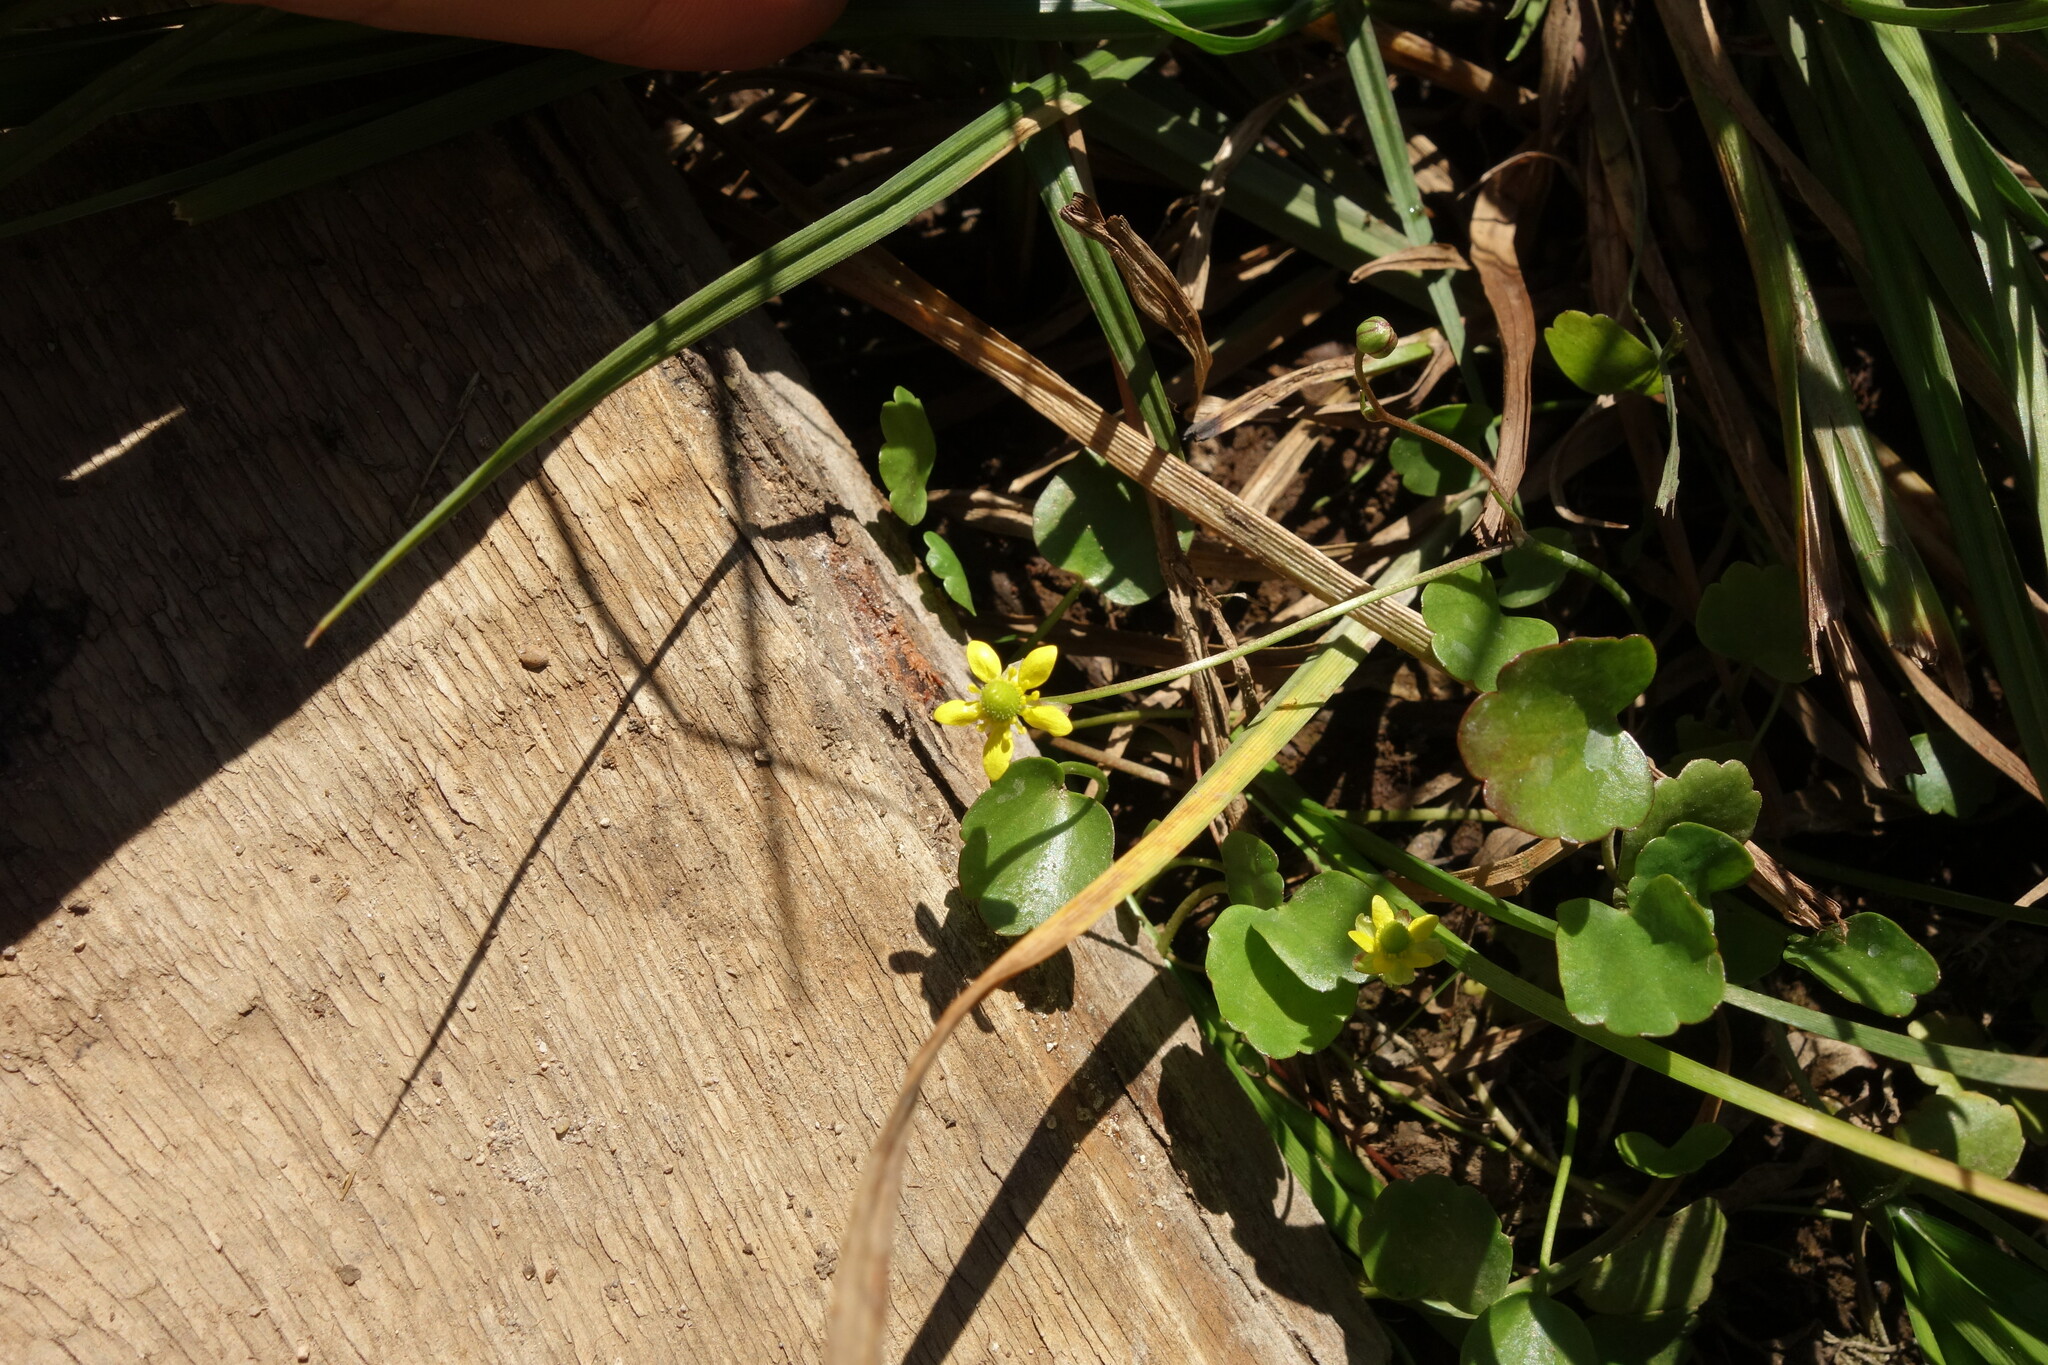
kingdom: Plantae
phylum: Tracheophyta
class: Magnoliopsida
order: Ranunculales
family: Ranunculaceae
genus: Halerpestes
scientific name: Halerpestes sarmentosus
